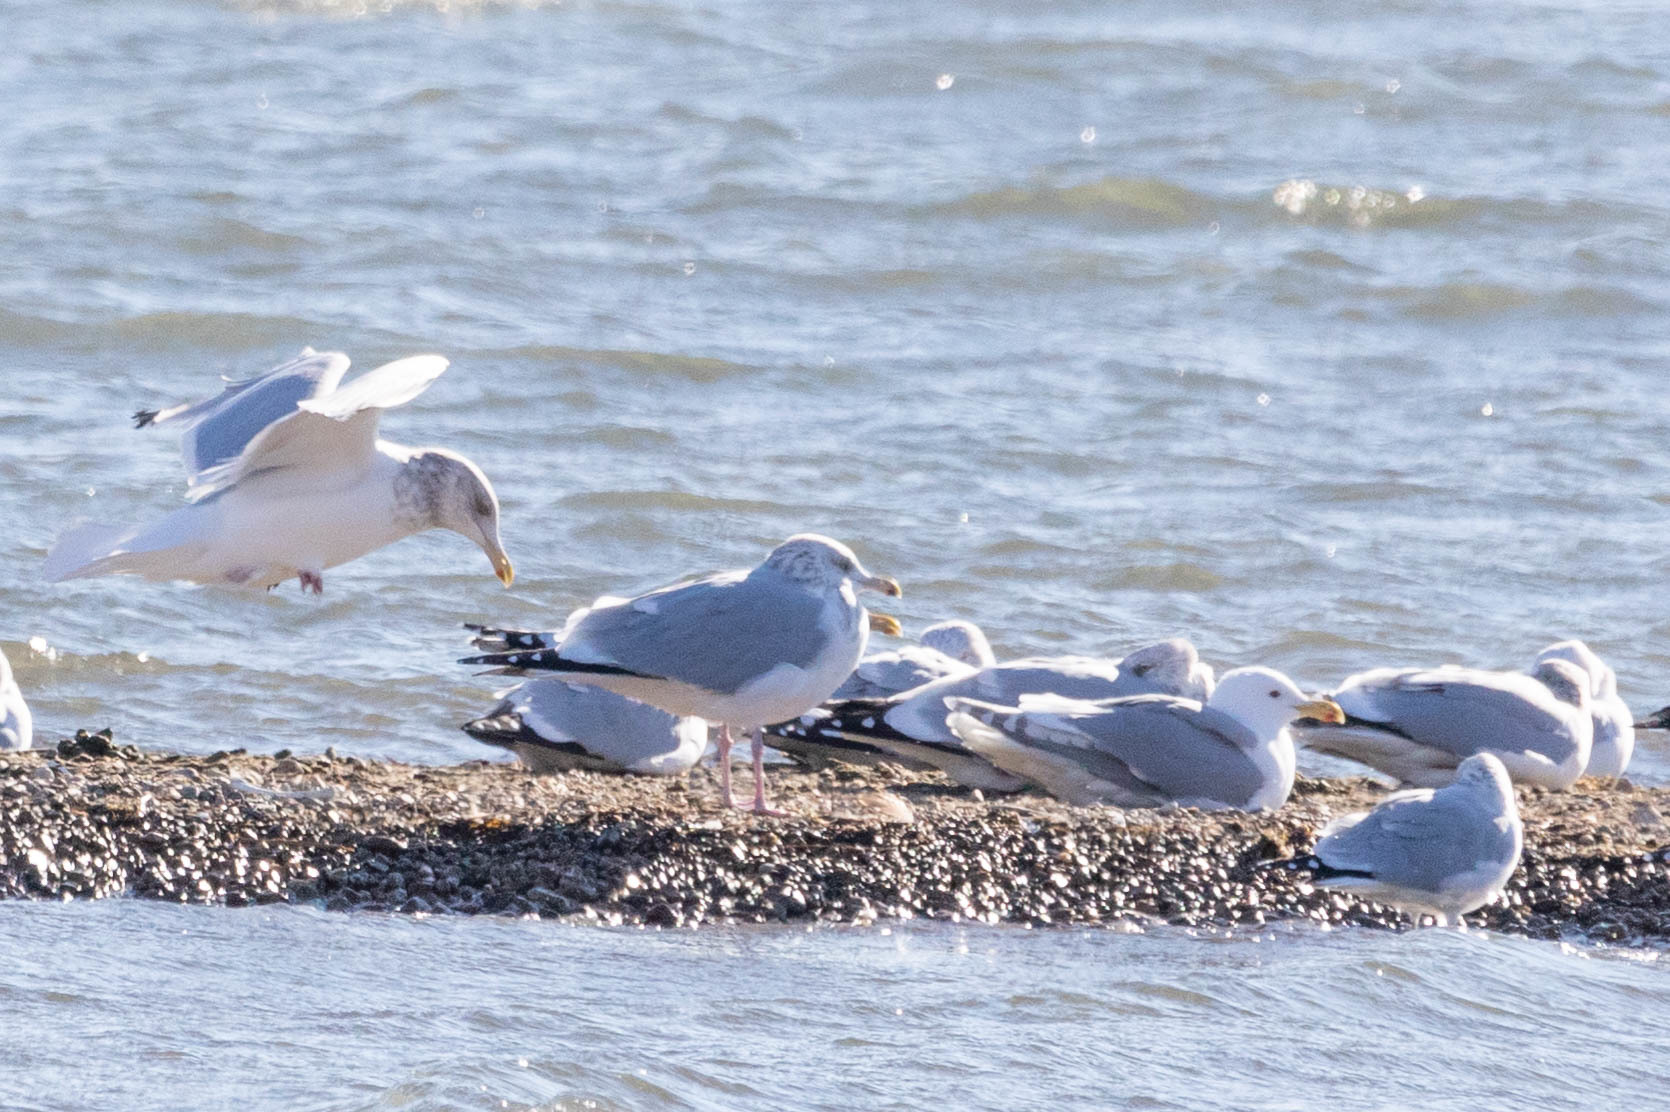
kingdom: Animalia
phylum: Chordata
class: Aves
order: Charadriiformes
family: Laridae
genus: Larus
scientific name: Larus glaucescens
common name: Glaucous-winged gull
